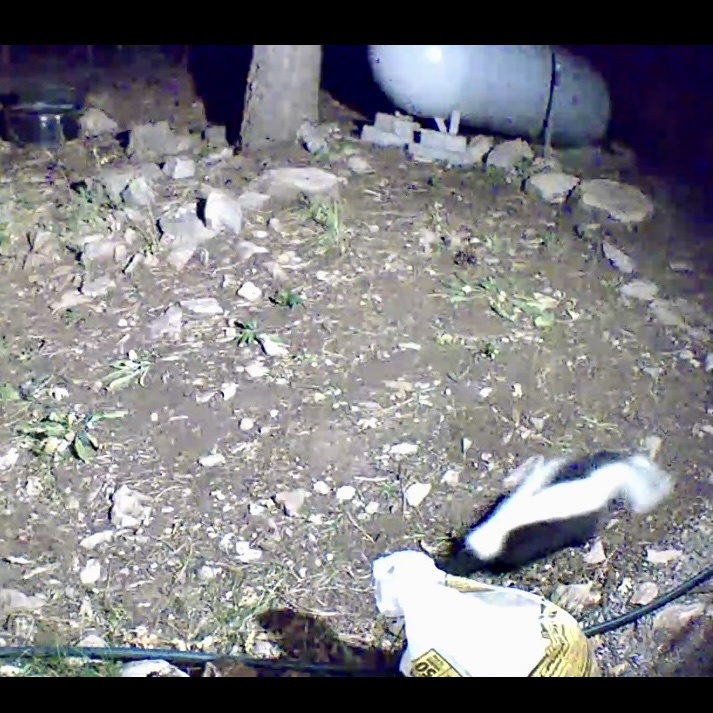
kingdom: Animalia
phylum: Chordata
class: Mammalia
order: Carnivora
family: Mephitidae
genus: Mephitis
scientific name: Mephitis mephitis
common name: Striped skunk
